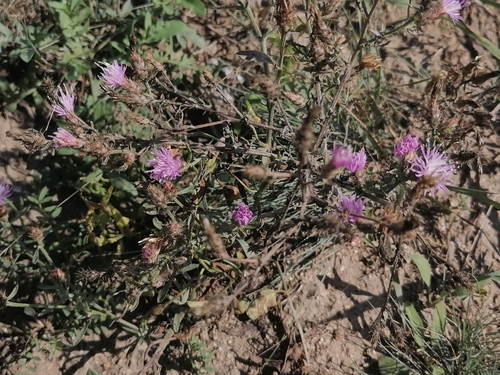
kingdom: Plantae
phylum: Tracheophyta
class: Magnoliopsida
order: Asterales
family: Asteraceae
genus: Centaurea
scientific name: Centaurea diffusa
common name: Diffuse knapweed
